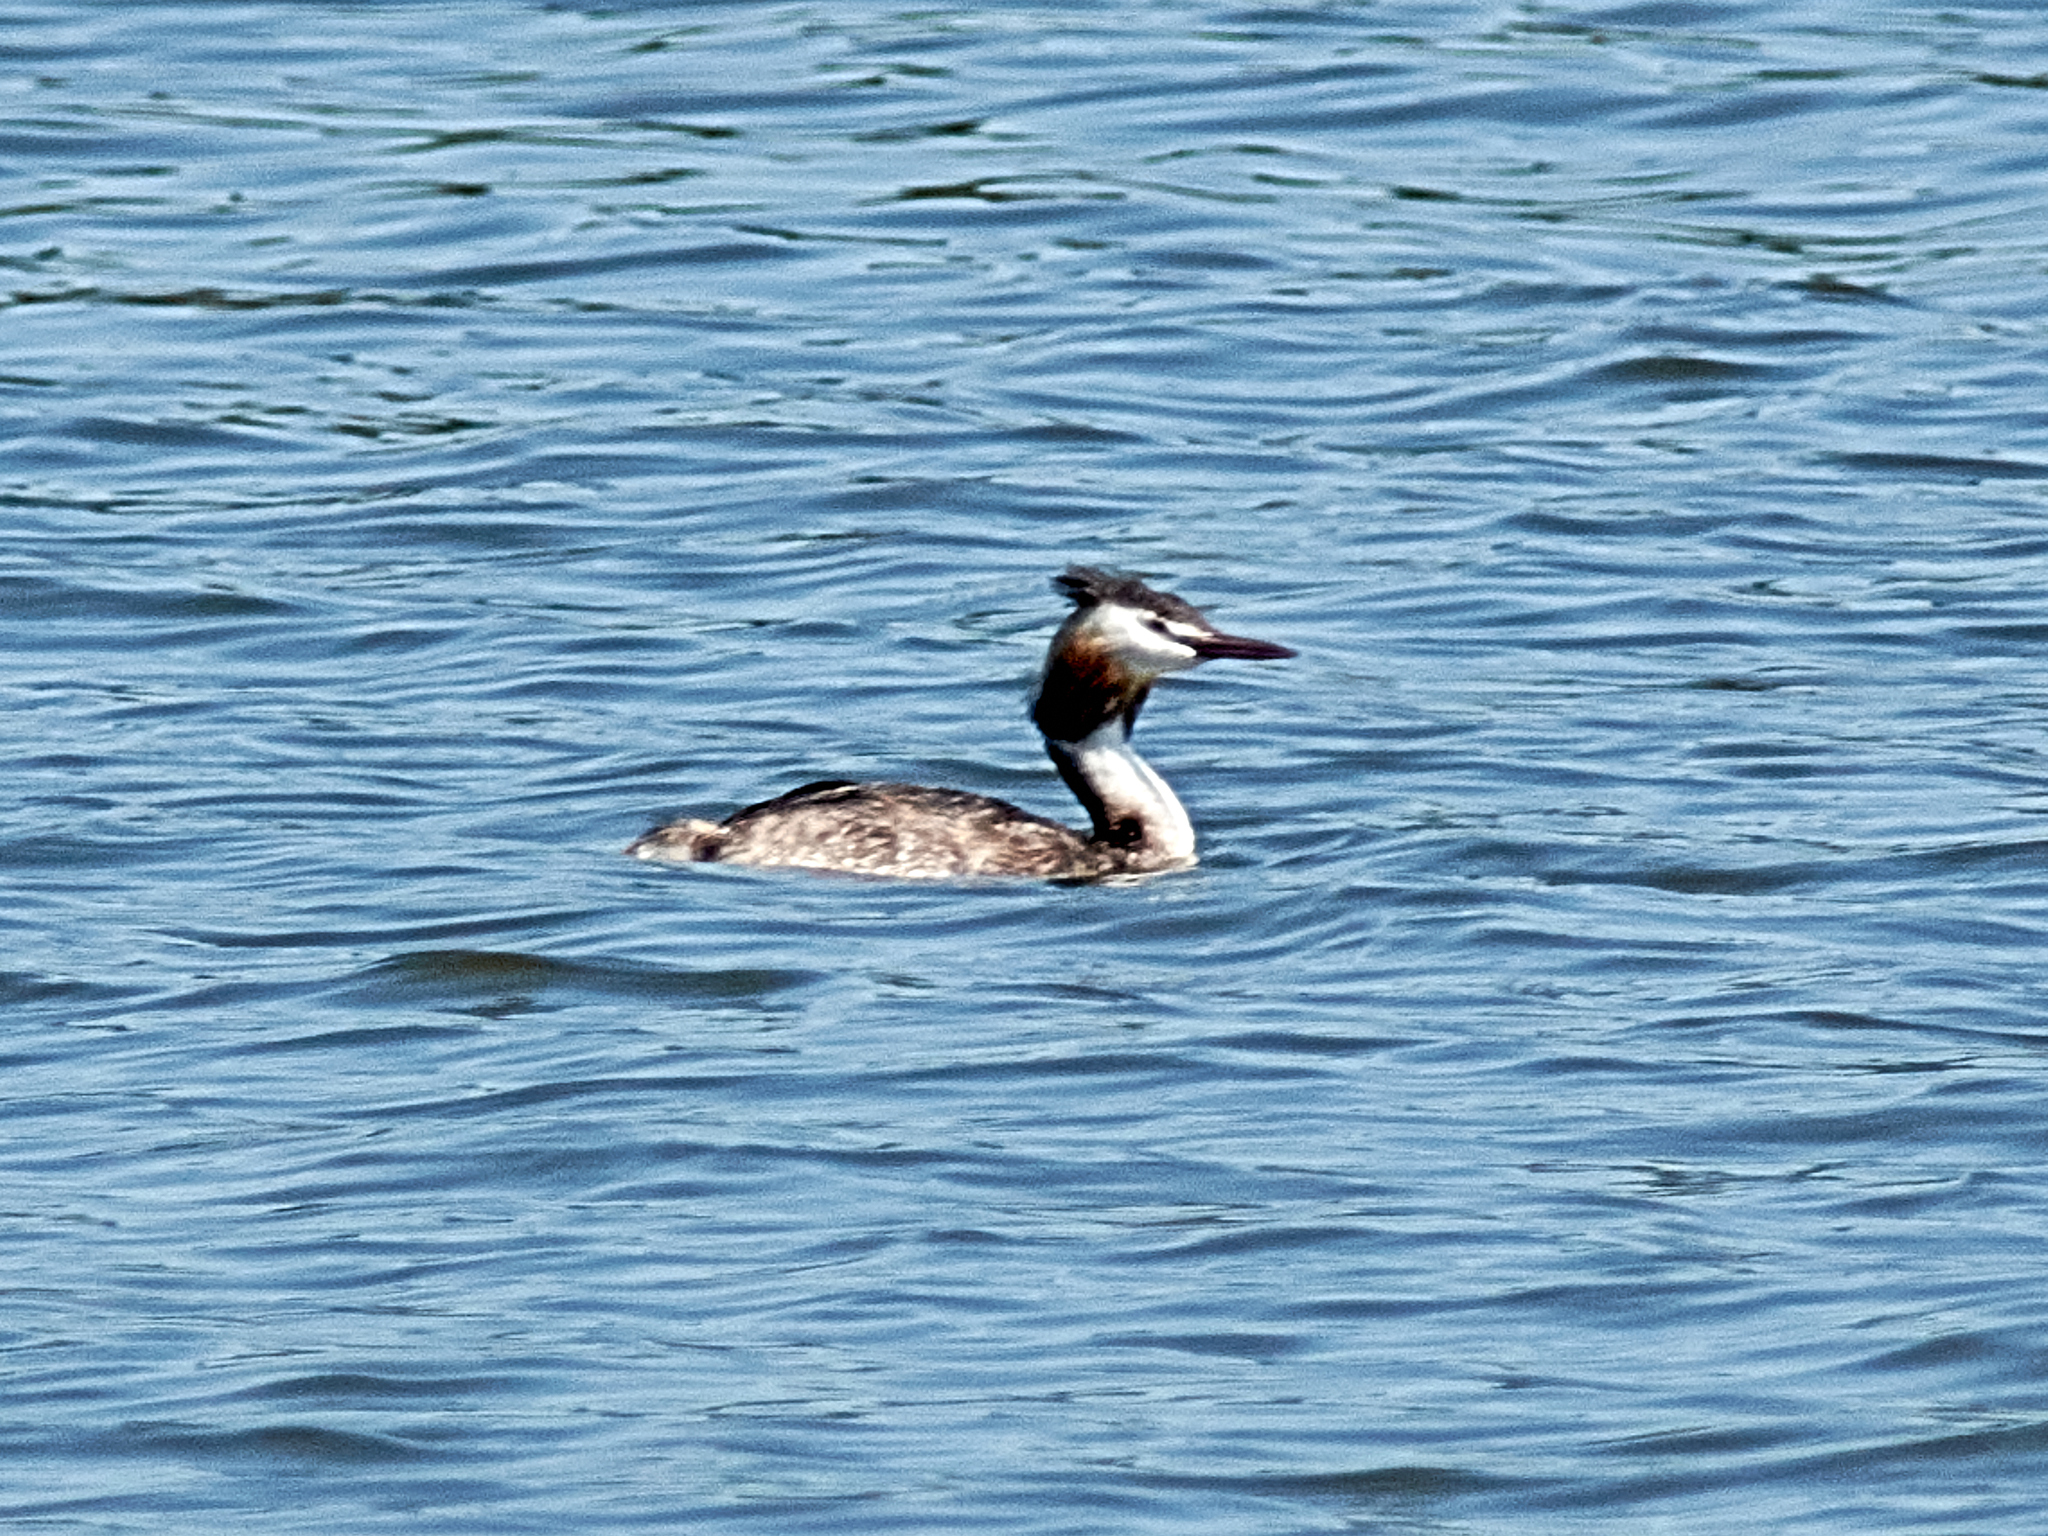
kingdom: Animalia
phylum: Chordata
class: Aves
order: Podicipediformes
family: Podicipedidae
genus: Podiceps
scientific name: Podiceps cristatus
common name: Great crested grebe
